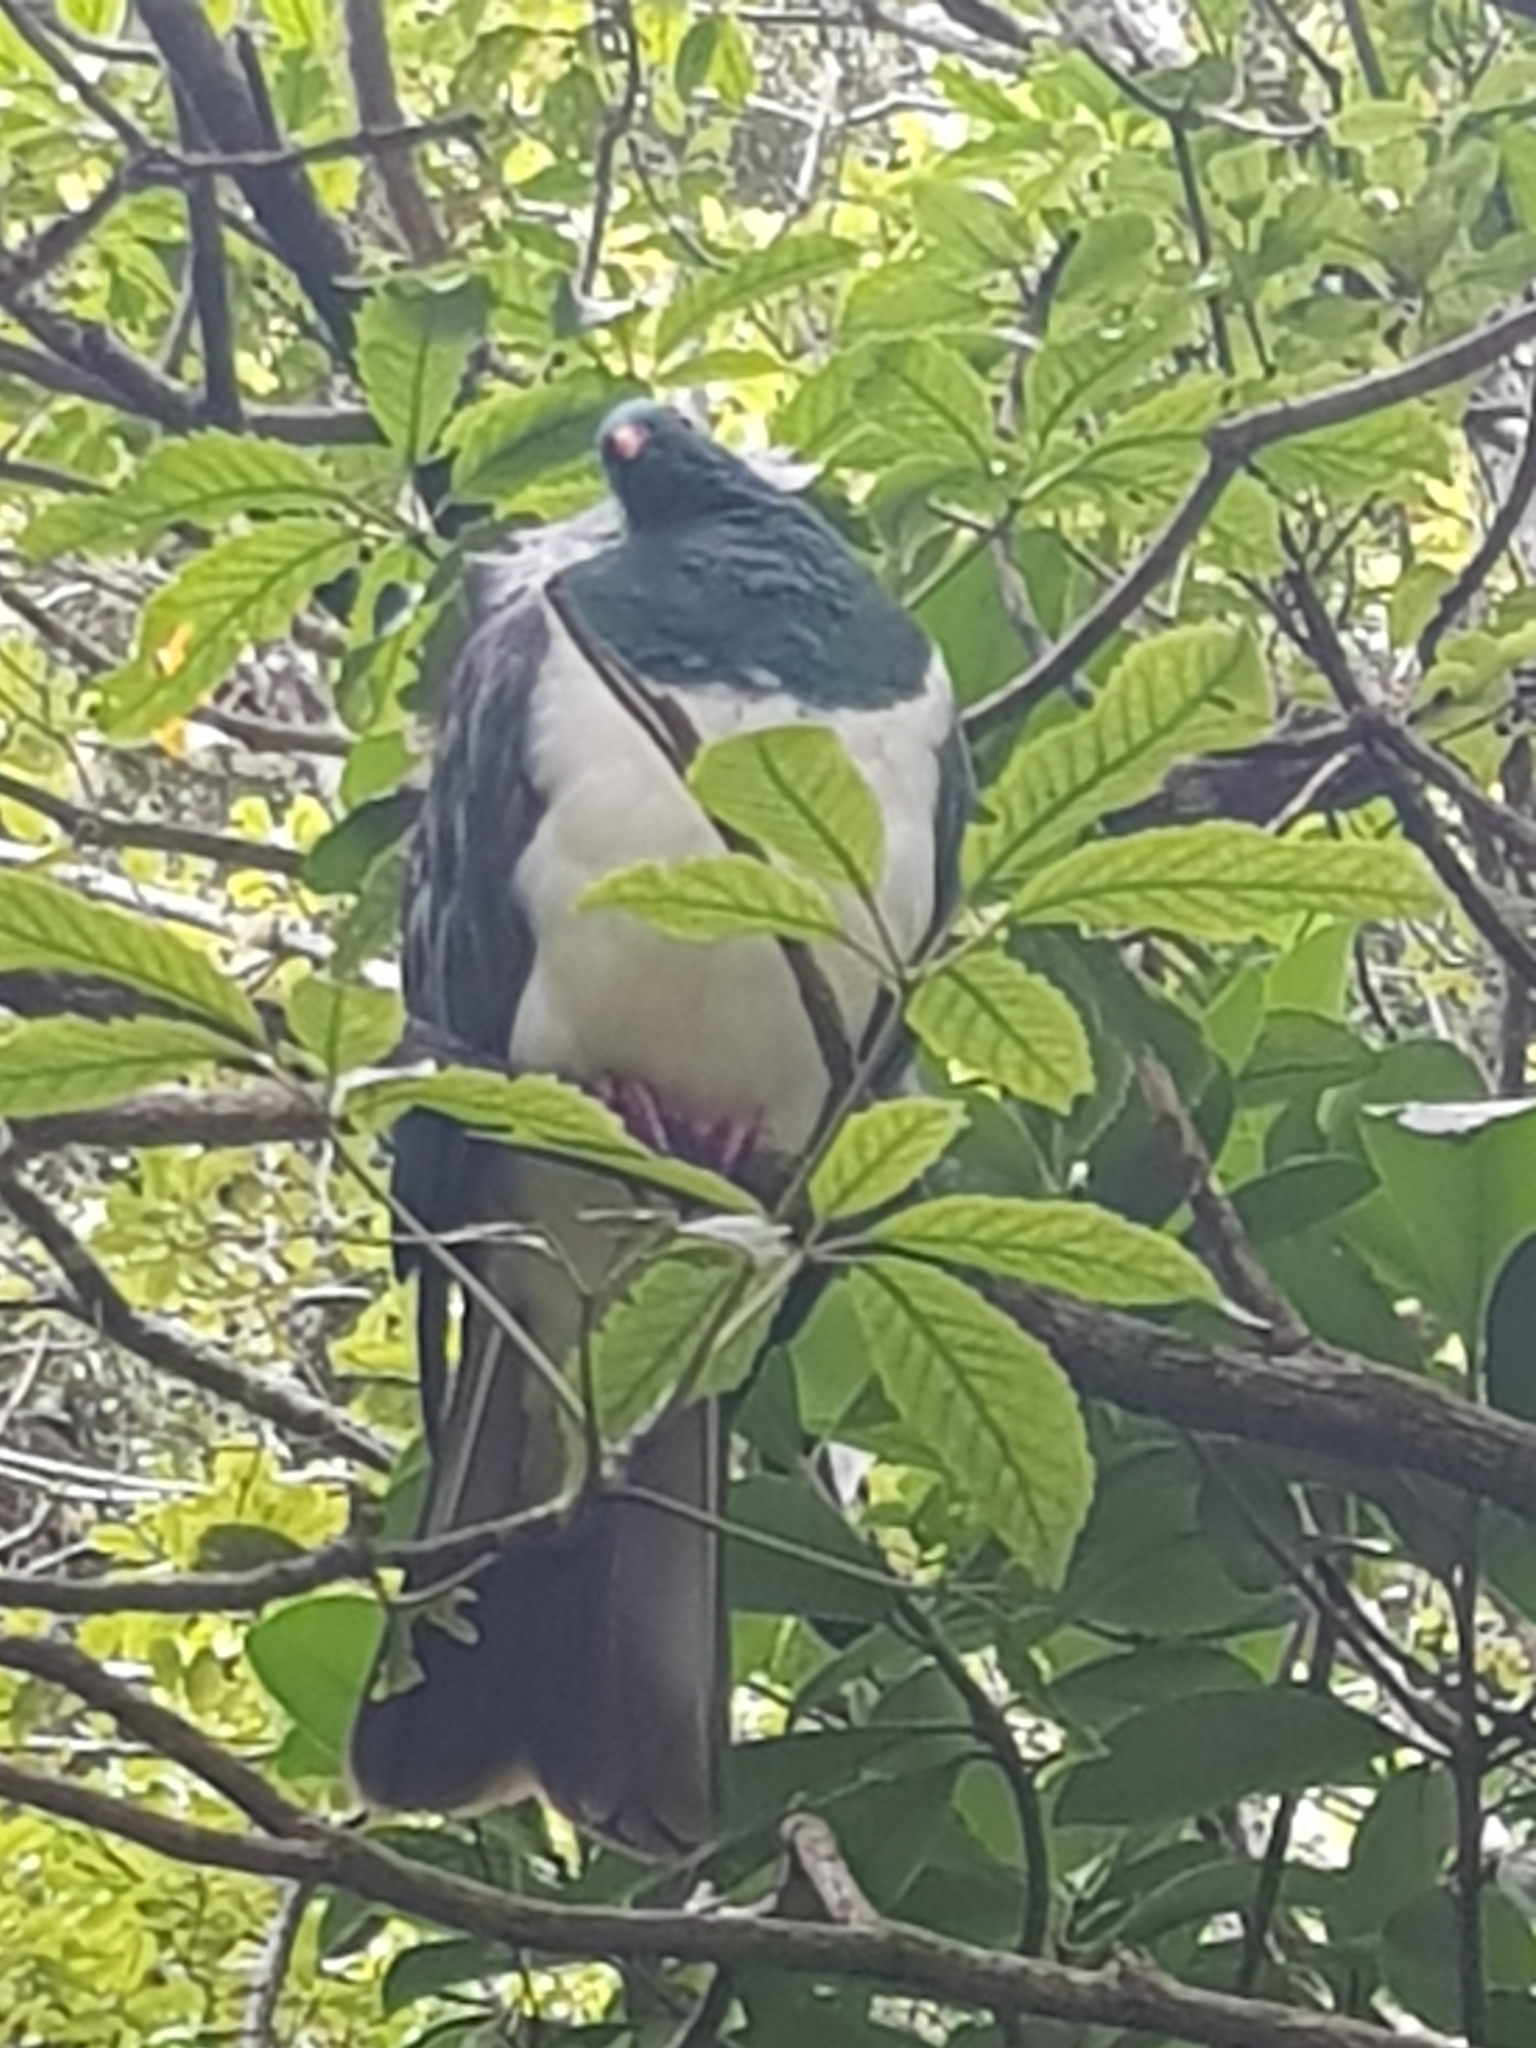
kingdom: Animalia
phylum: Chordata
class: Aves
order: Columbiformes
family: Columbidae
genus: Hemiphaga
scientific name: Hemiphaga novaeseelandiae
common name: New zealand pigeon
